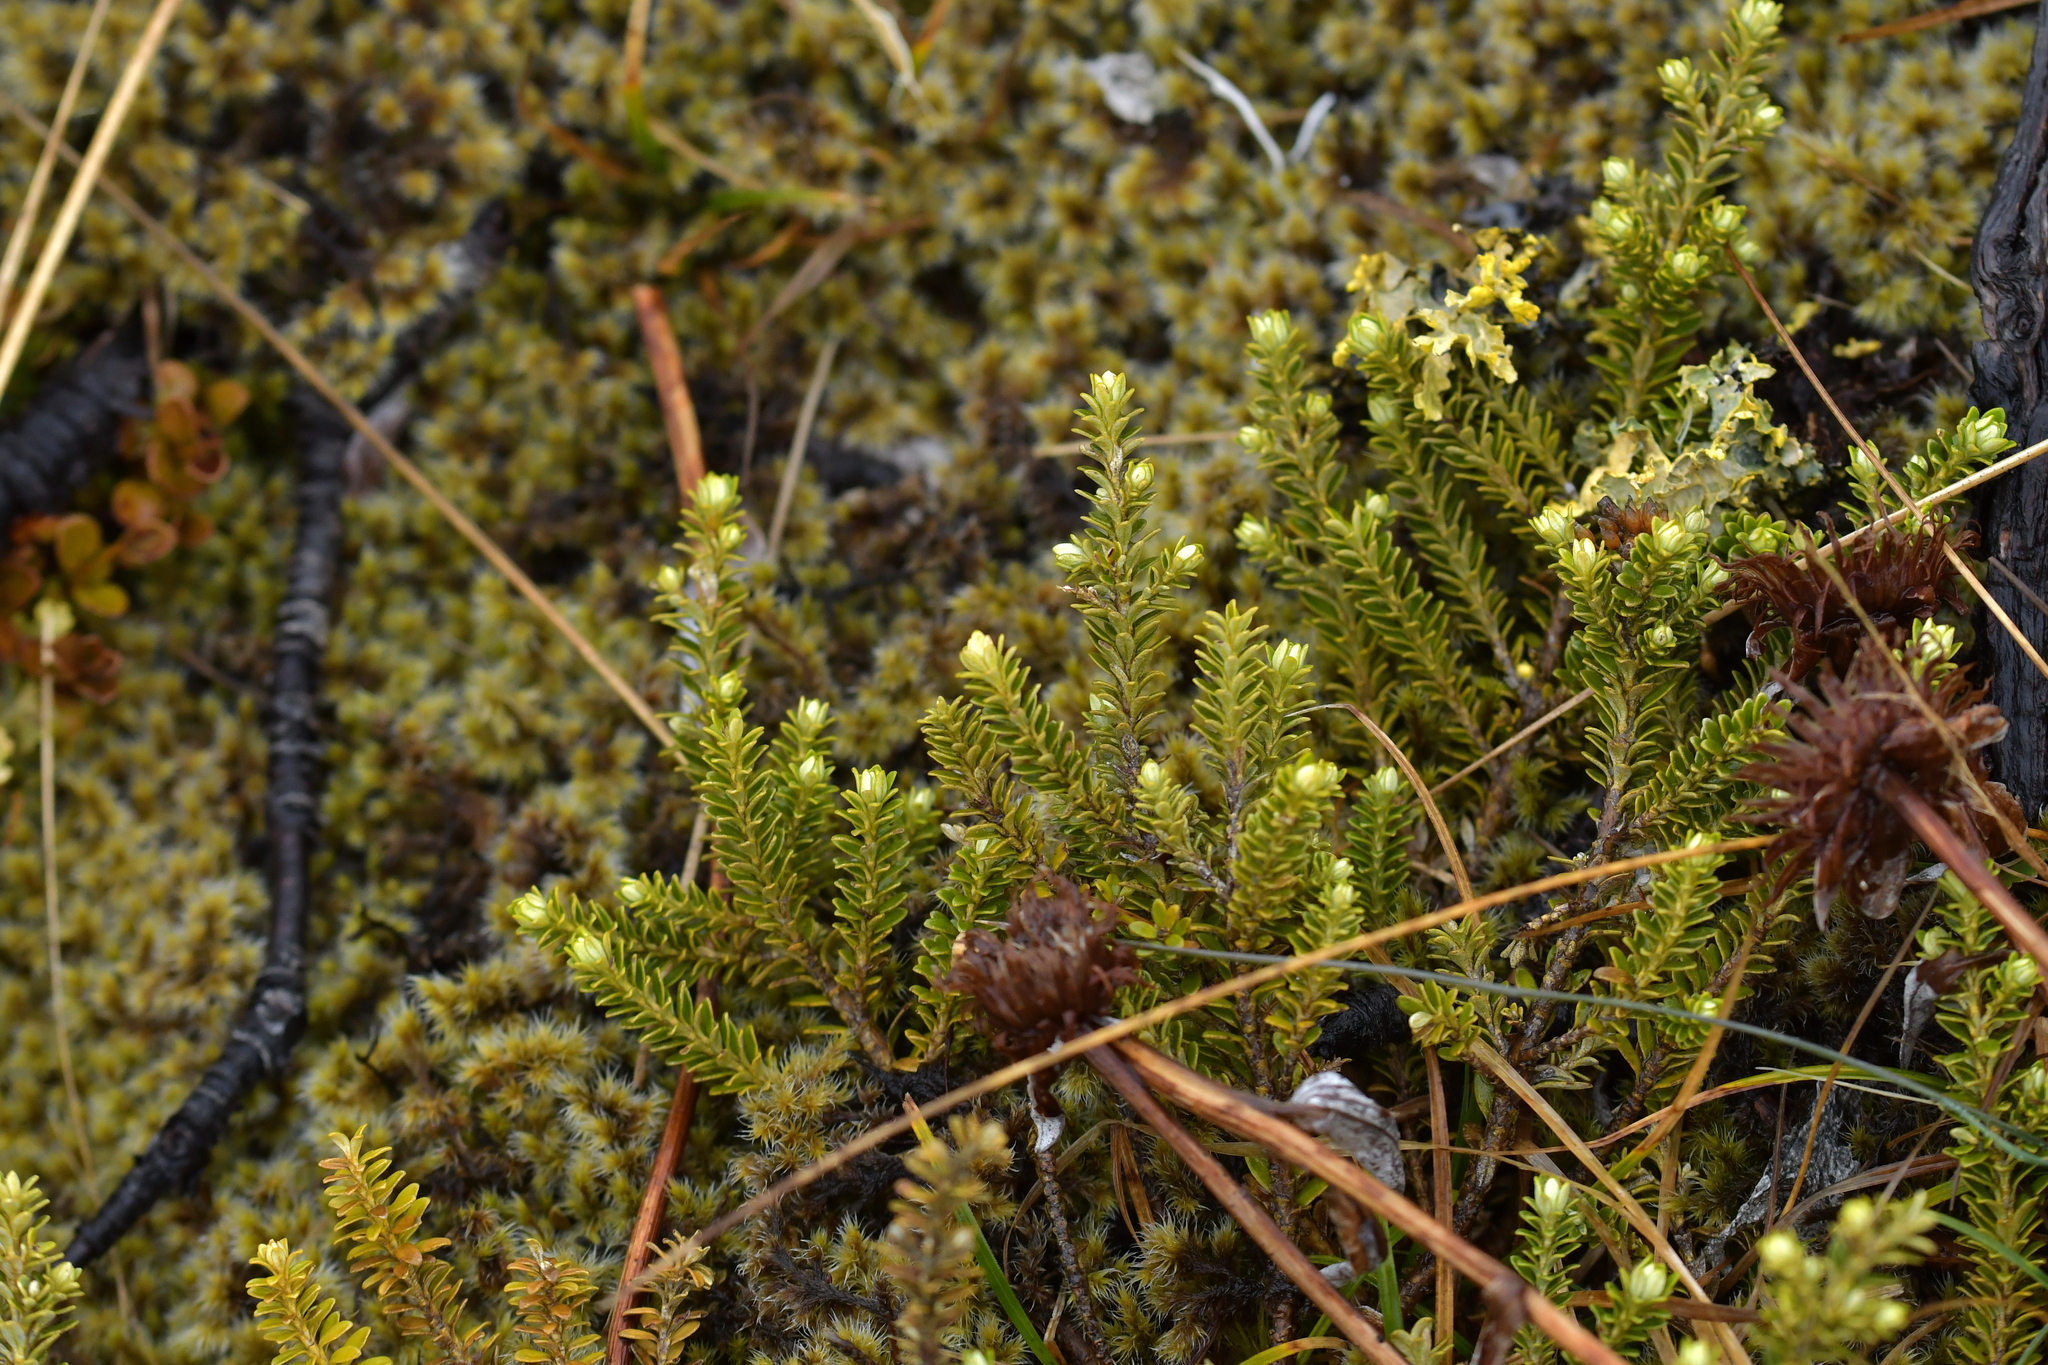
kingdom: Plantae
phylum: Tracheophyta
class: Magnoliopsida
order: Asterales
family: Asteraceae
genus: Ozothamnus
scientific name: Ozothamnus leptophyllus
